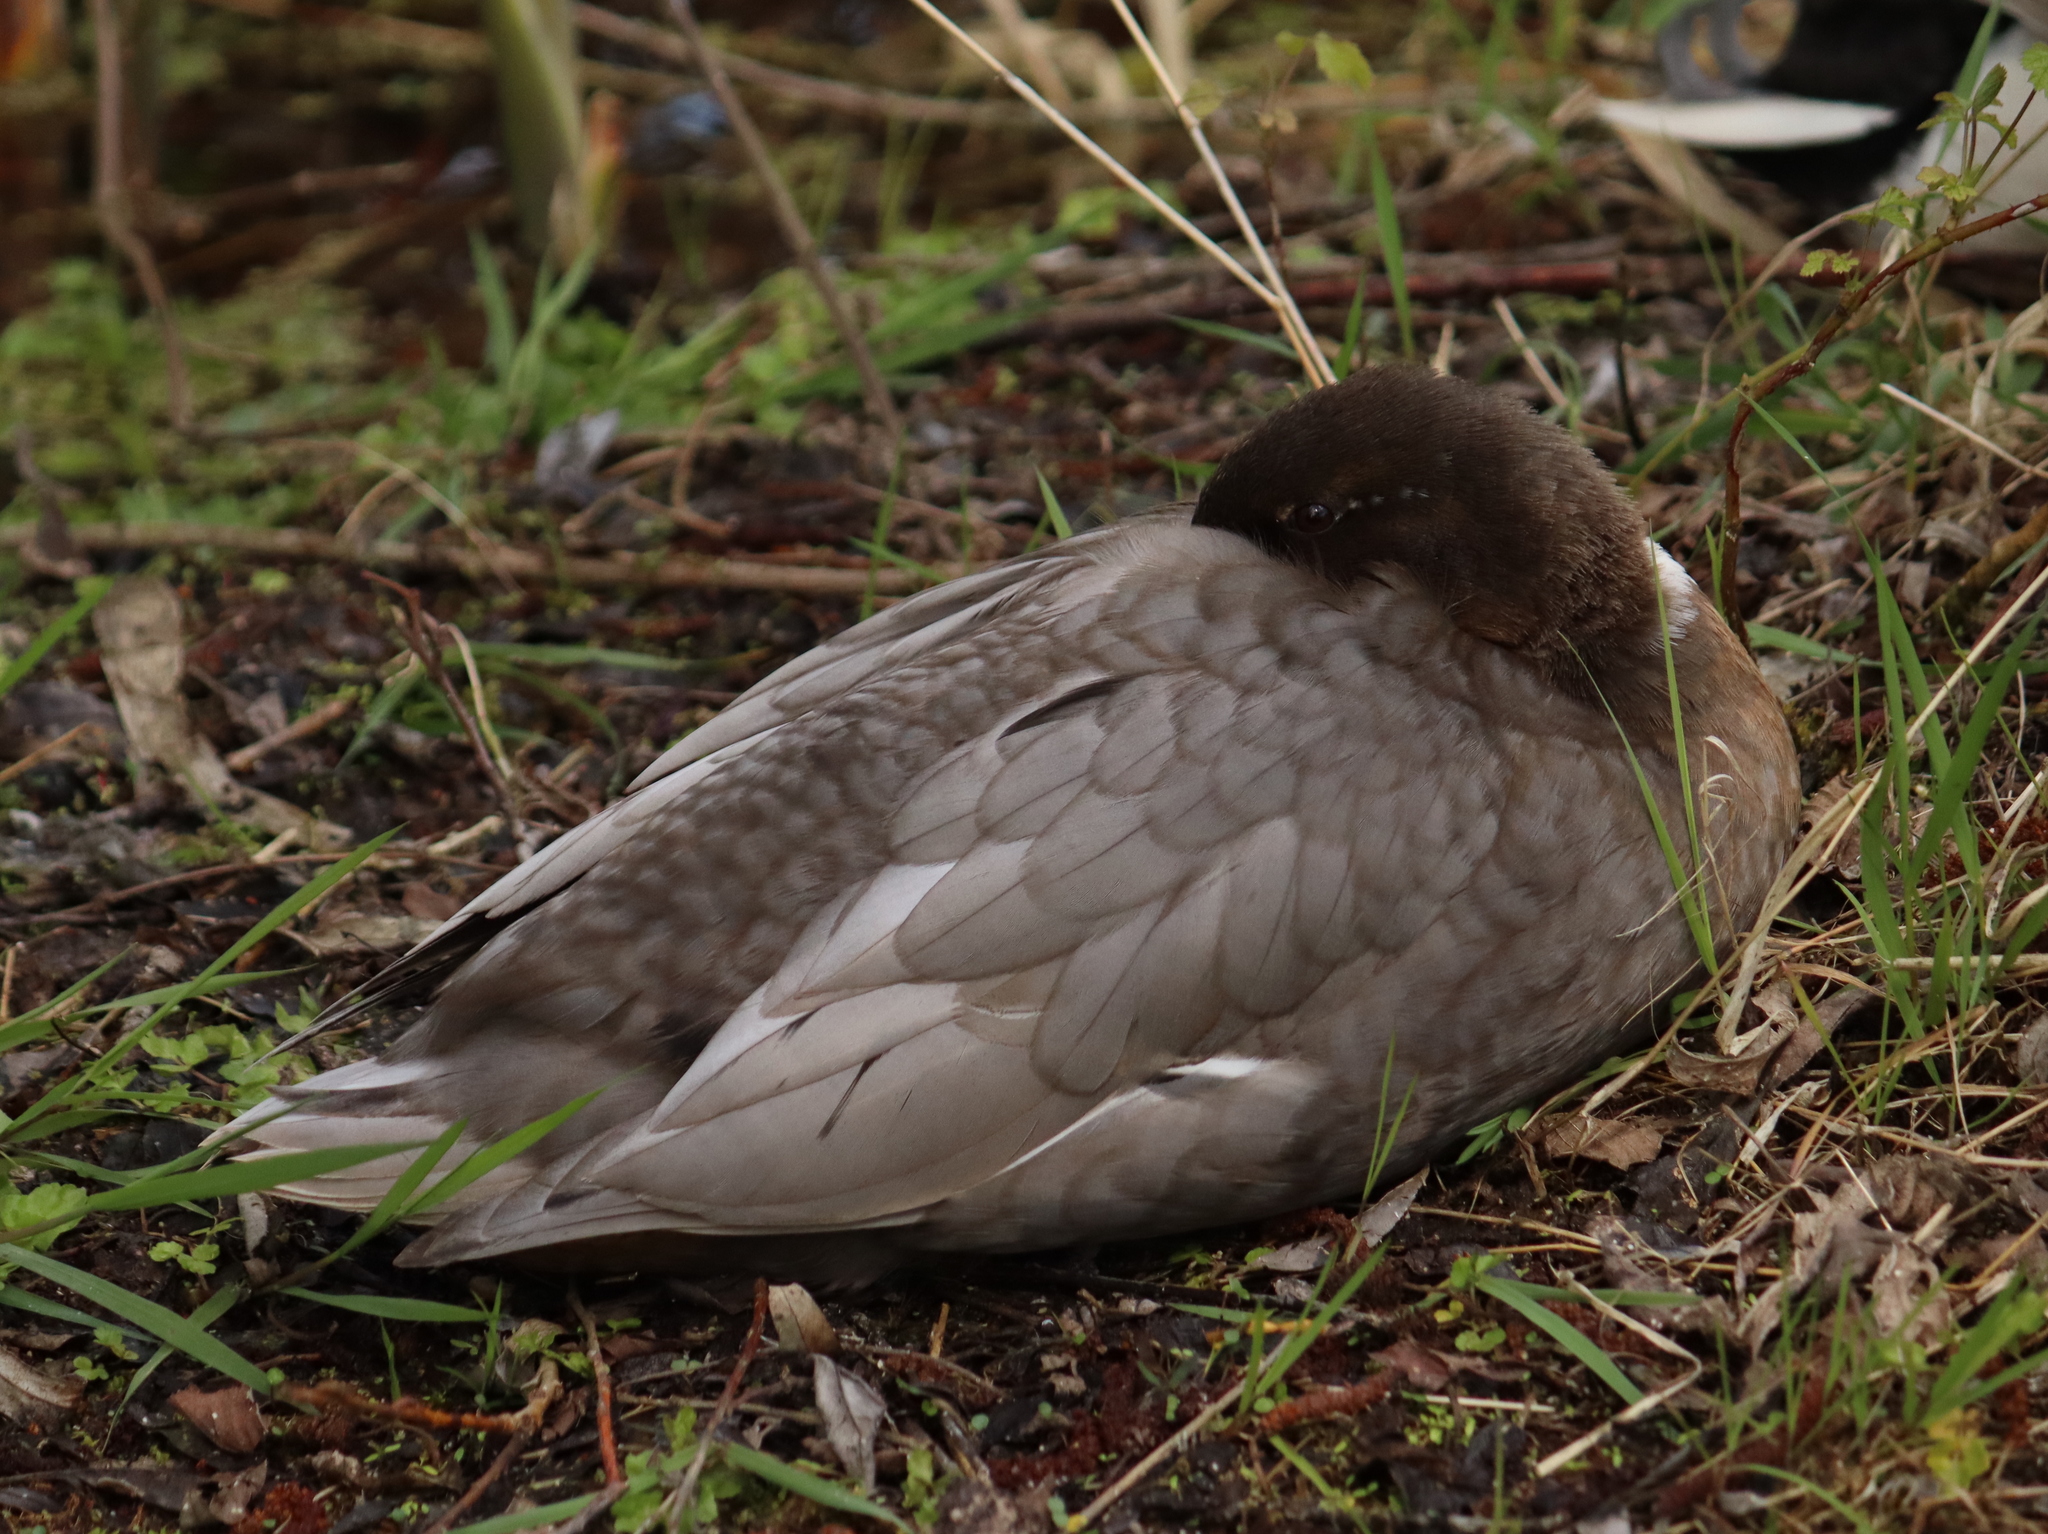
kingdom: Animalia
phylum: Chordata
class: Aves
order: Anseriformes
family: Anatidae
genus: Anas
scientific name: Anas platyrhynchos
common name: Mallard
